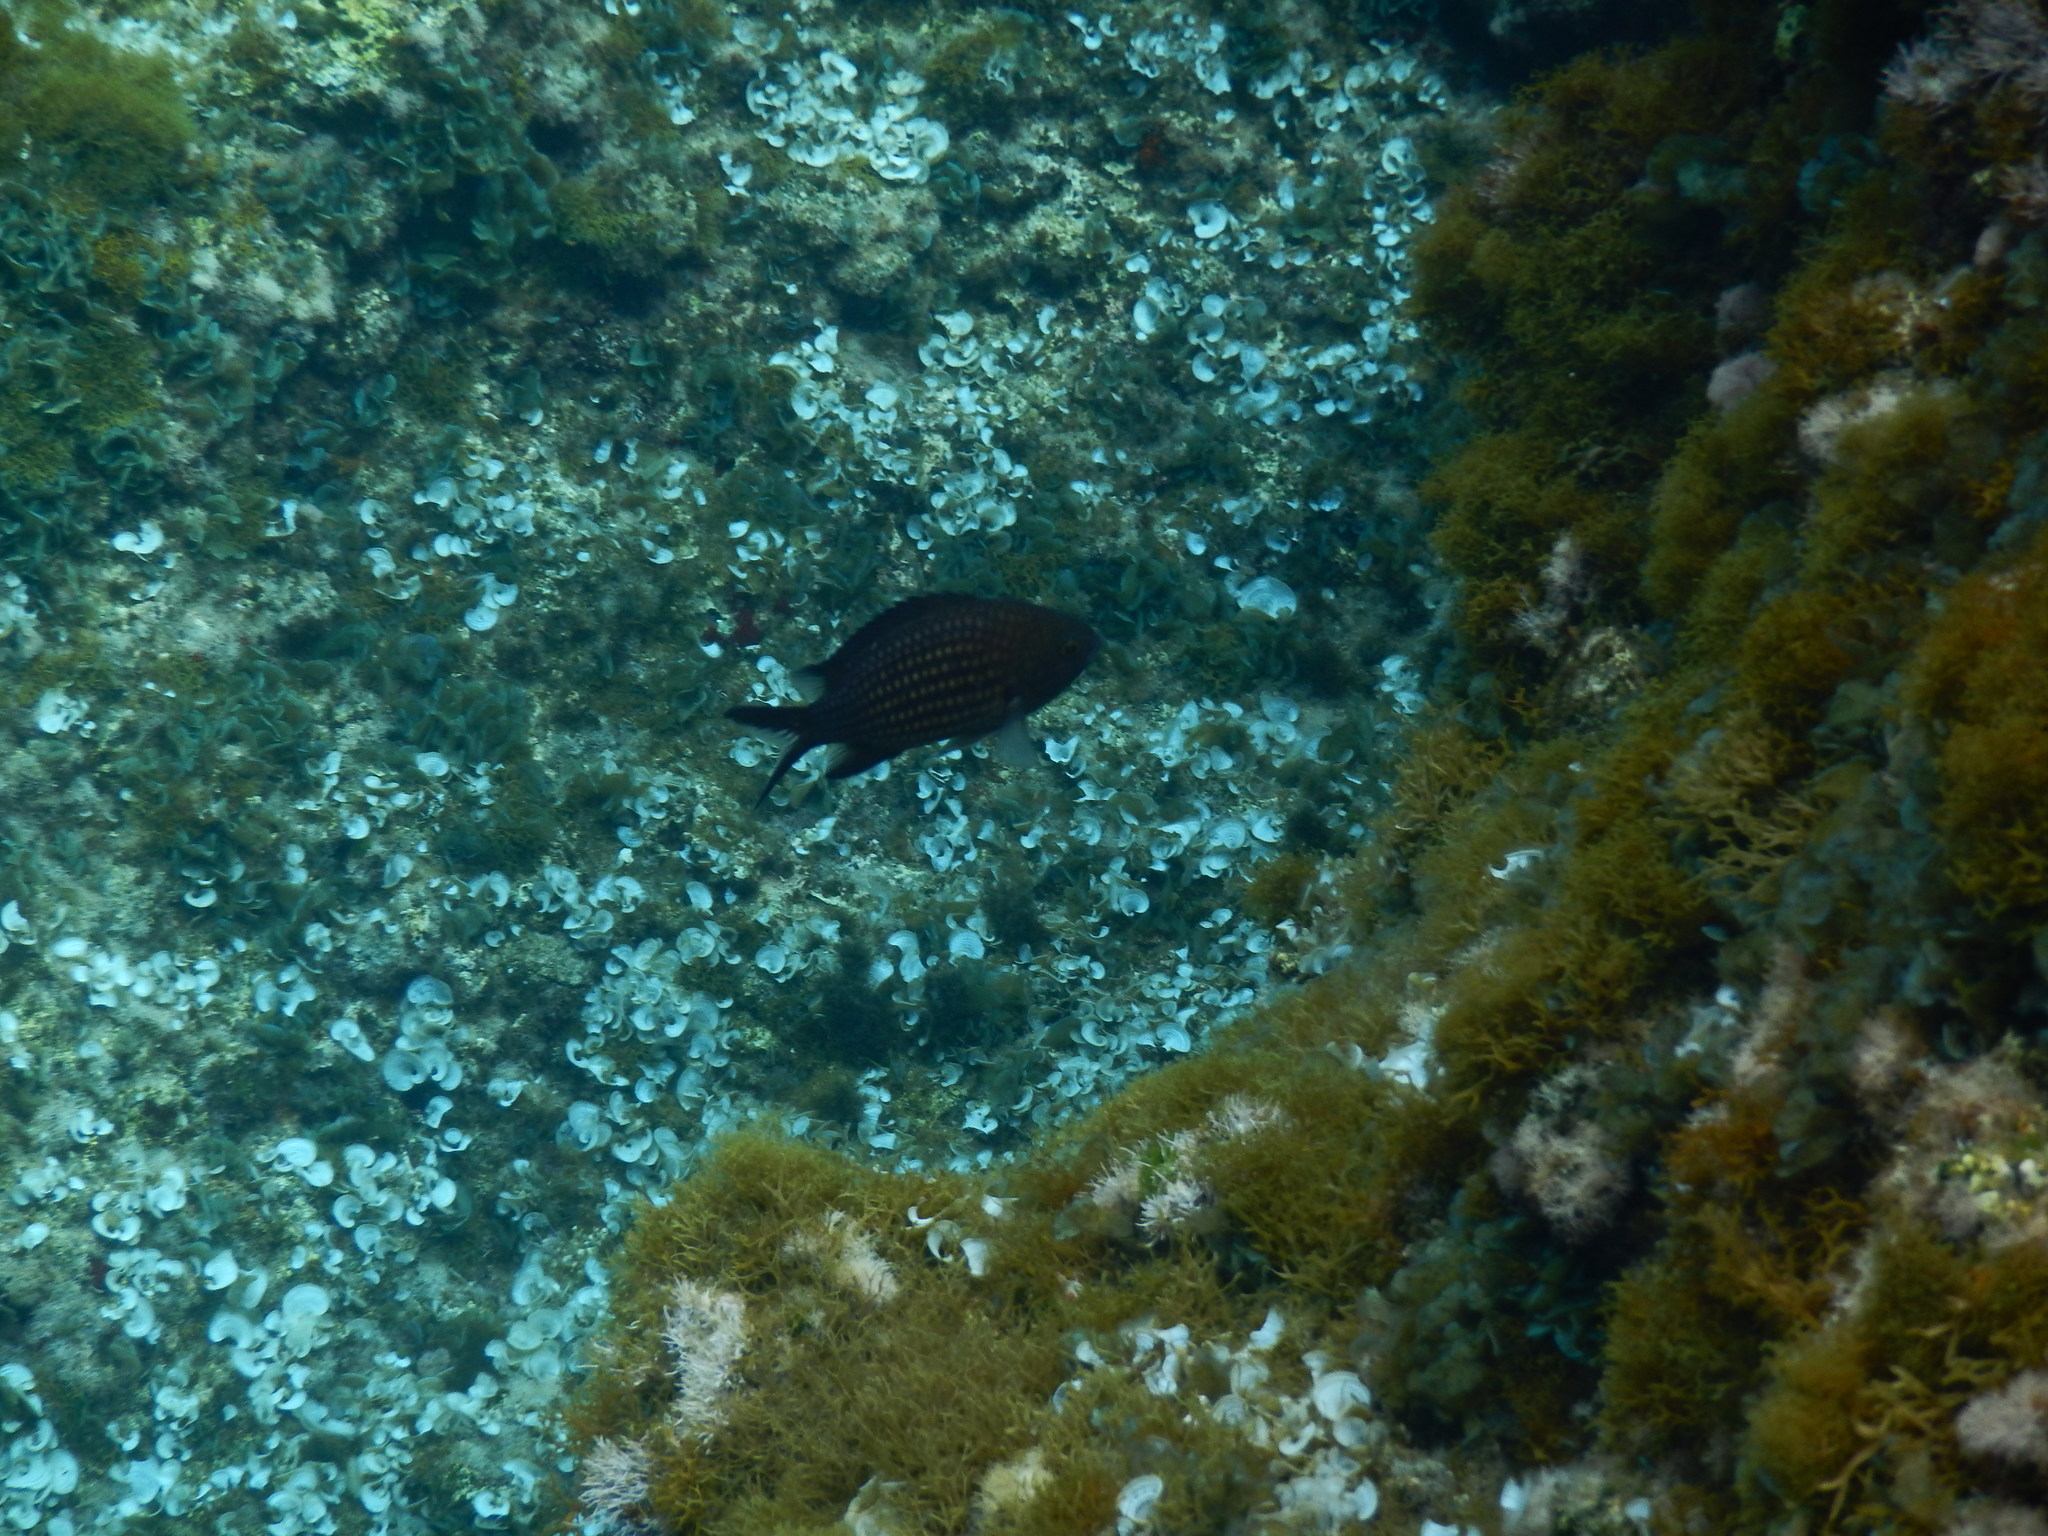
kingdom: Animalia
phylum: Chordata
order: Perciformes
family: Pomacentridae
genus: Chromis
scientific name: Chromis chromis
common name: Damselfish
